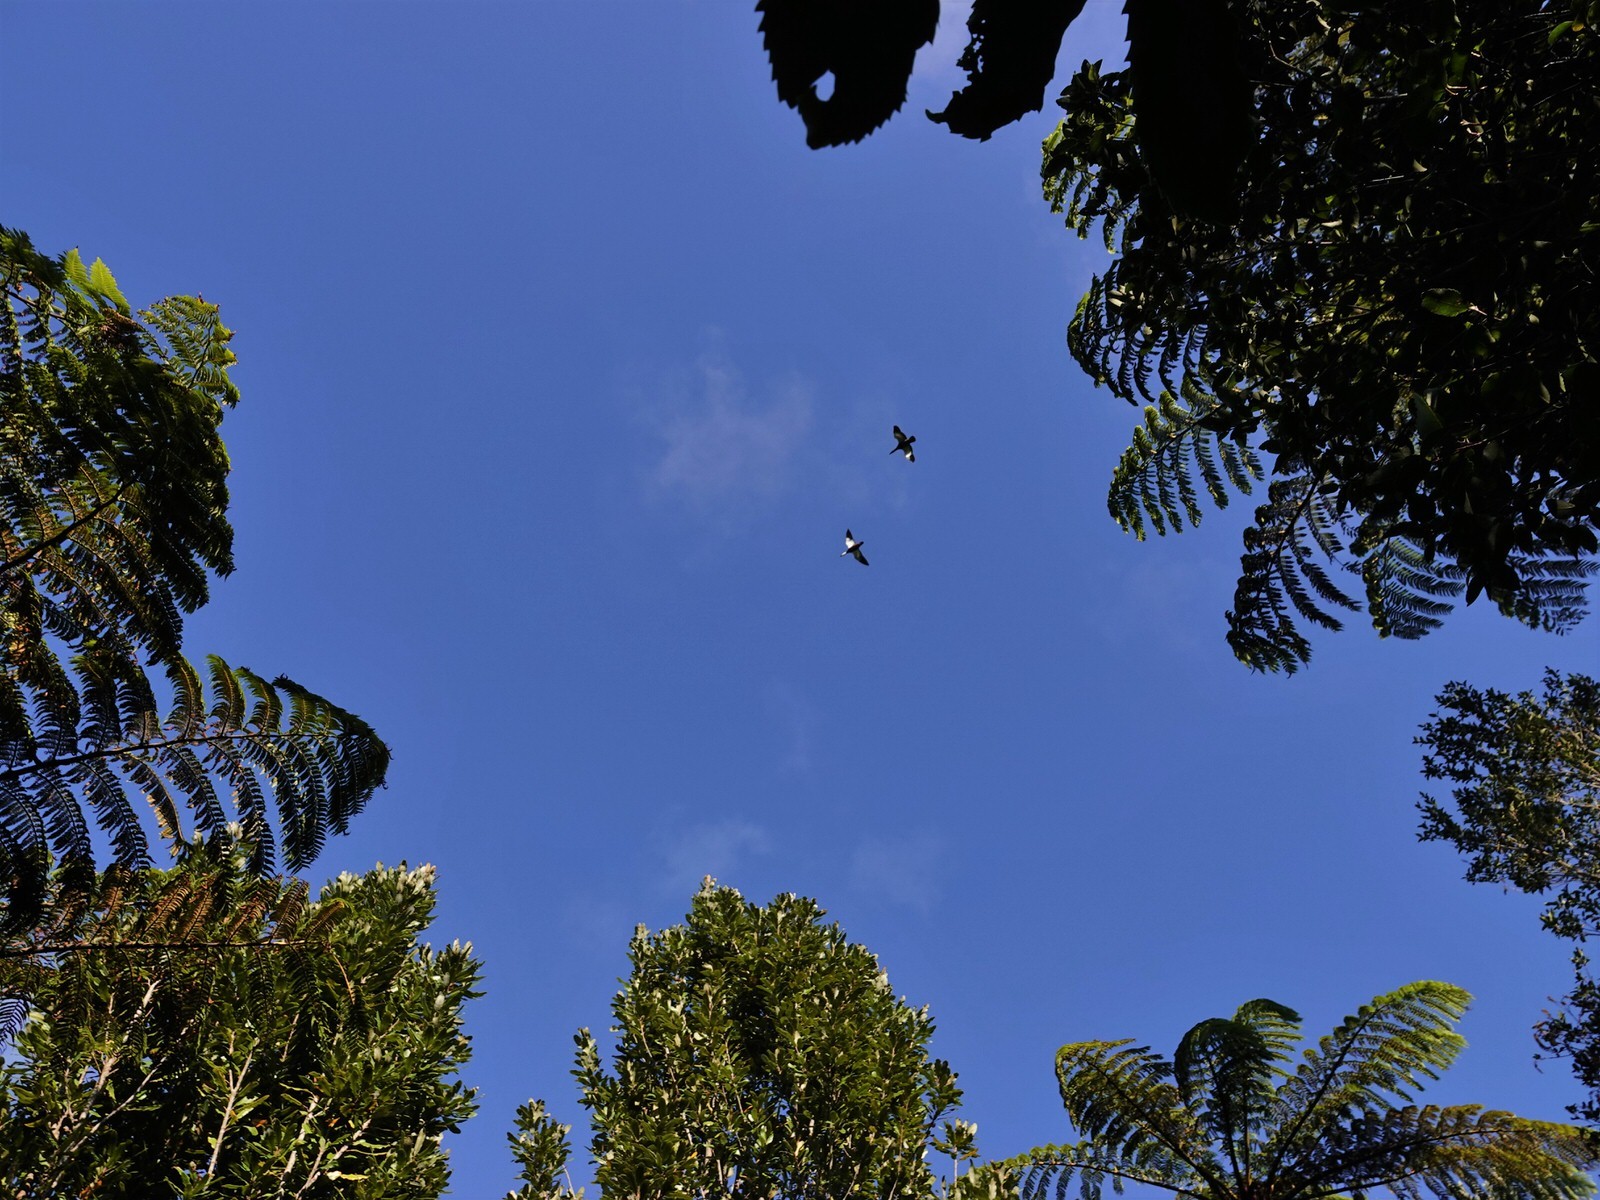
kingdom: Animalia
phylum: Chordata
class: Aves
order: Anseriformes
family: Anatidae
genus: Tadorna
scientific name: Tadorna variegata
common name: Paradise shelduck
